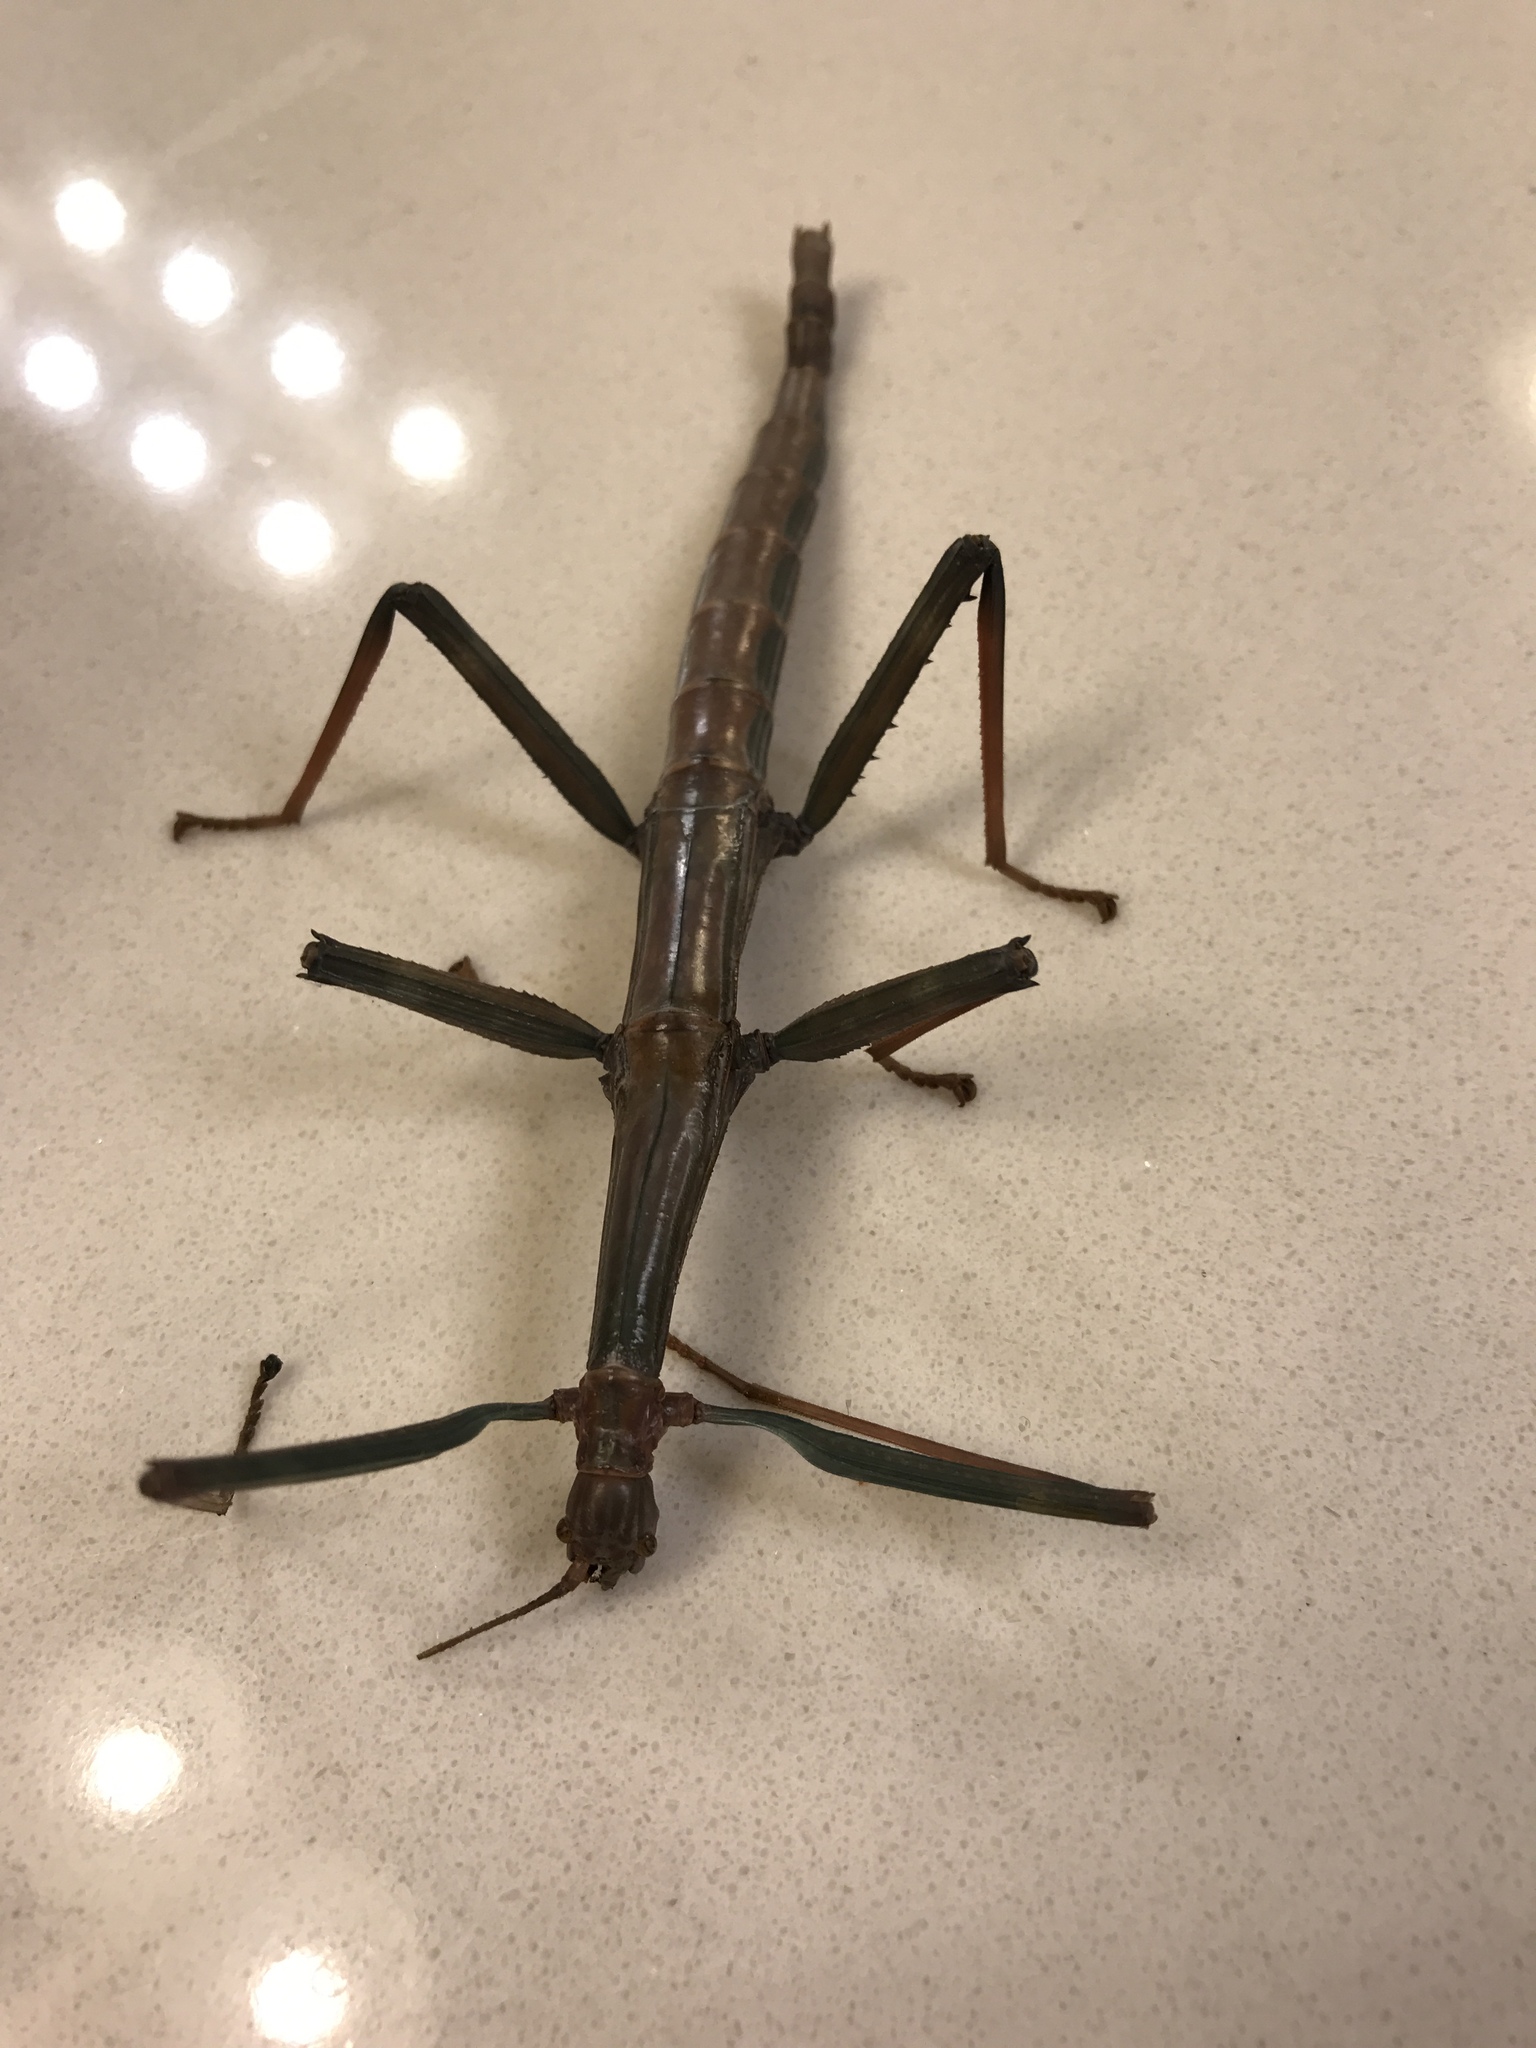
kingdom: Animalia
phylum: Arthropoda
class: Insecta
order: Phasmida
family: Diapheromeridae
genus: Megaphasma
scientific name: Megaphasma denticrus
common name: Giant walkingstick
